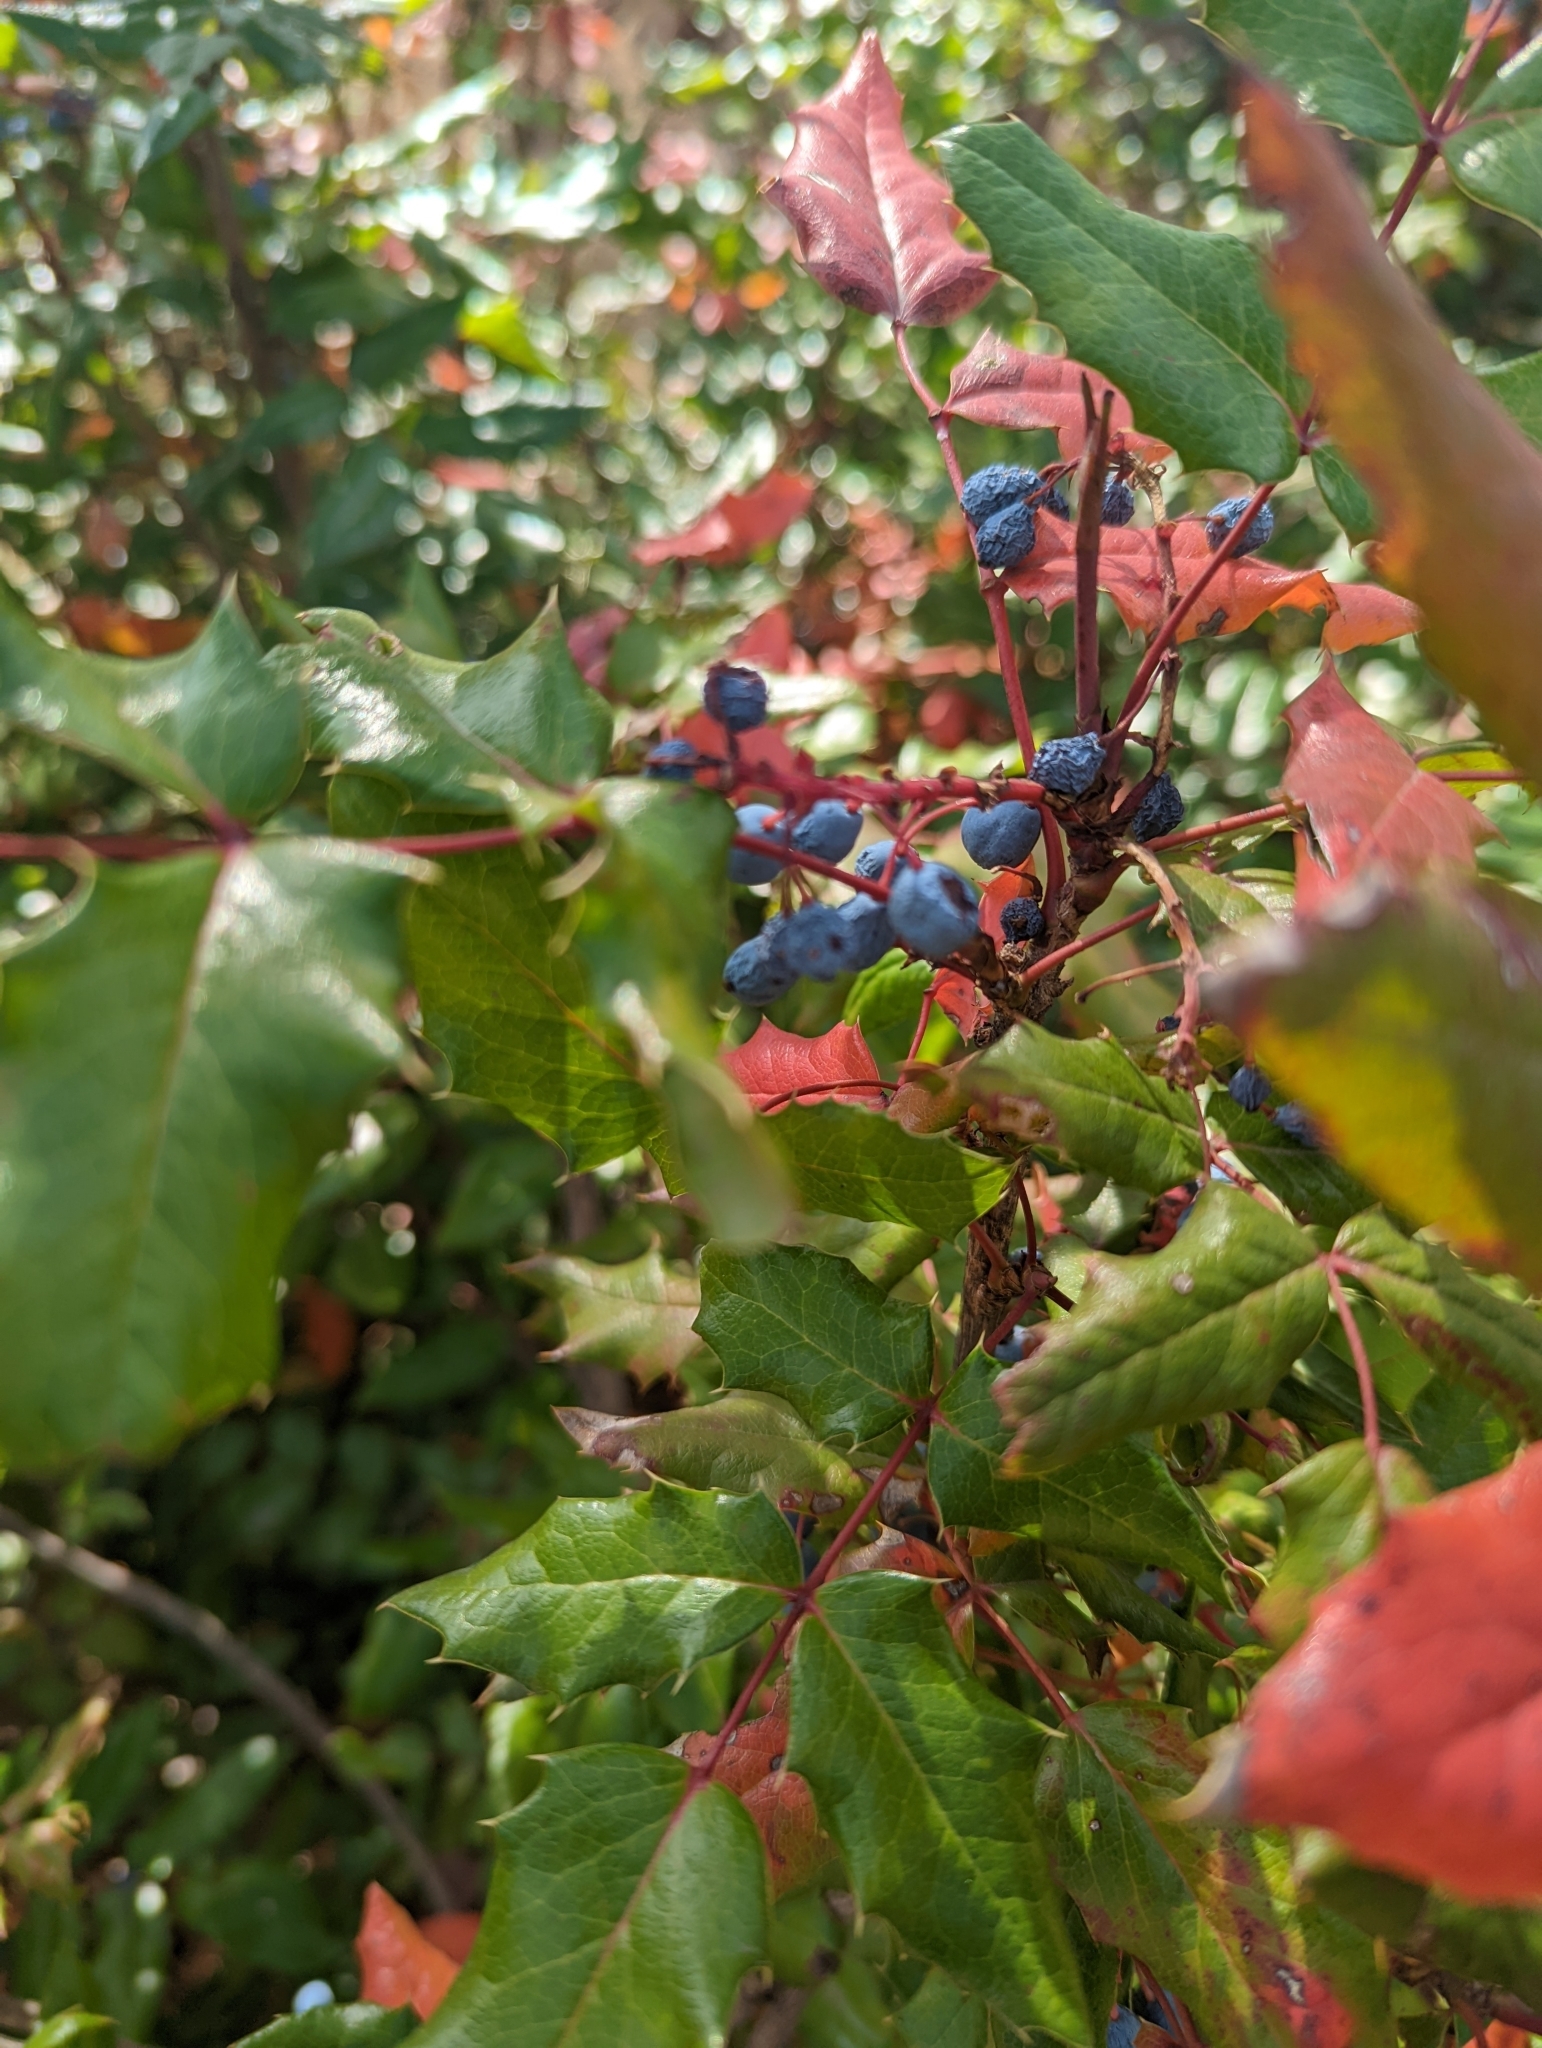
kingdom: Plantae
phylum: Tracheophyta
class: Magnoliopsida
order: Ranunculales
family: Berberidaceae
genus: Mahonia
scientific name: Mahonia aquifolium
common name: Oregon-grape
